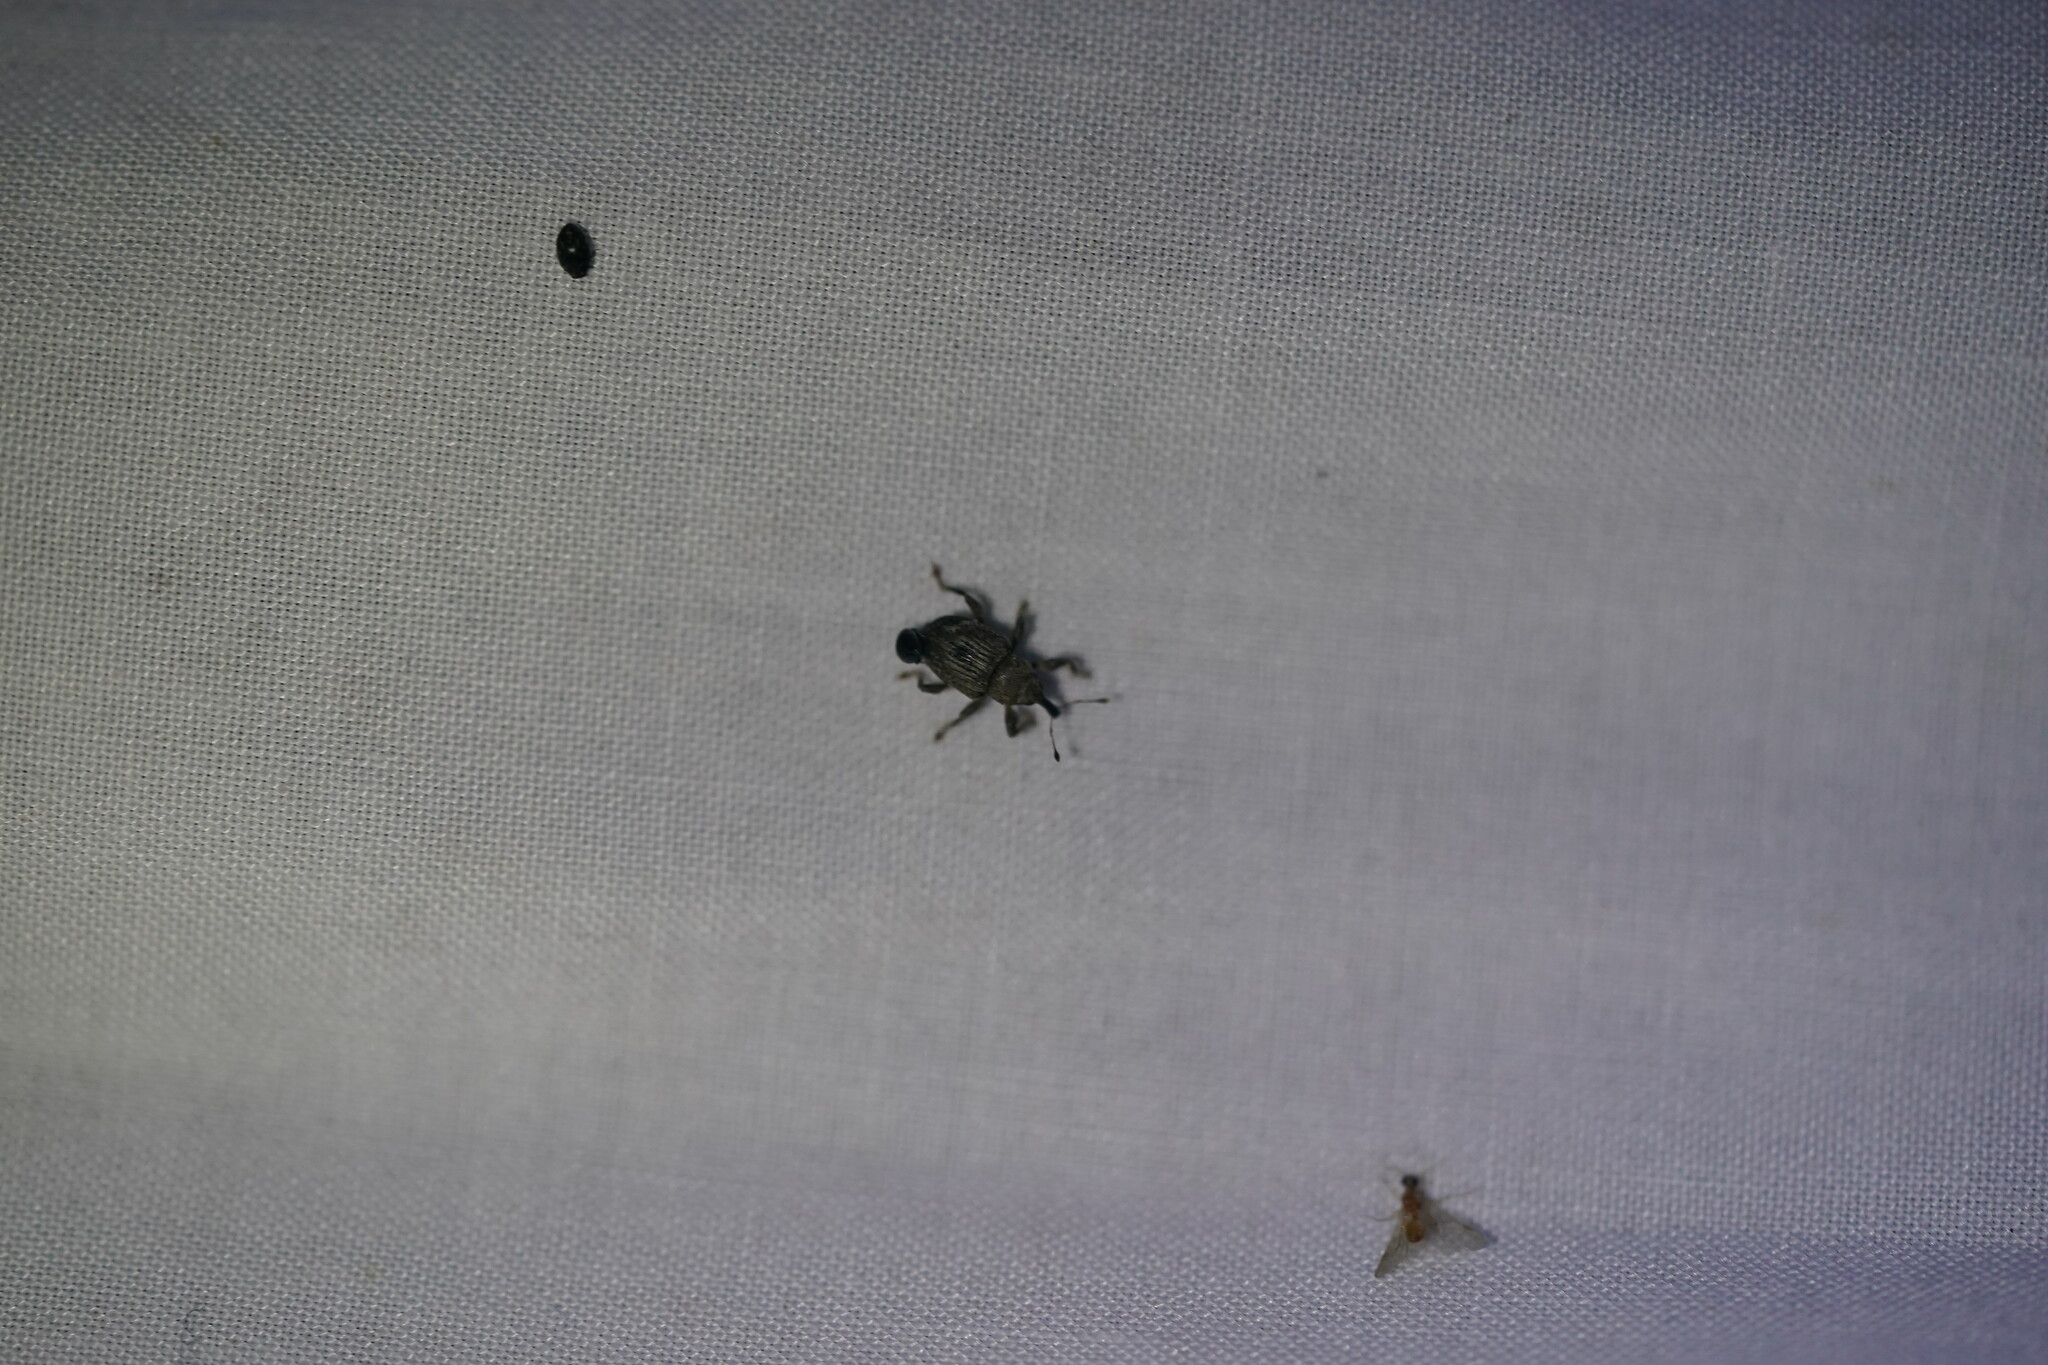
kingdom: Animalia
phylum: Arthropoda
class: Insecta
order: Coleoptera
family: Brachyceridae
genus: Neochetina
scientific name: Neochetina eichhorniae
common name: Weevil
